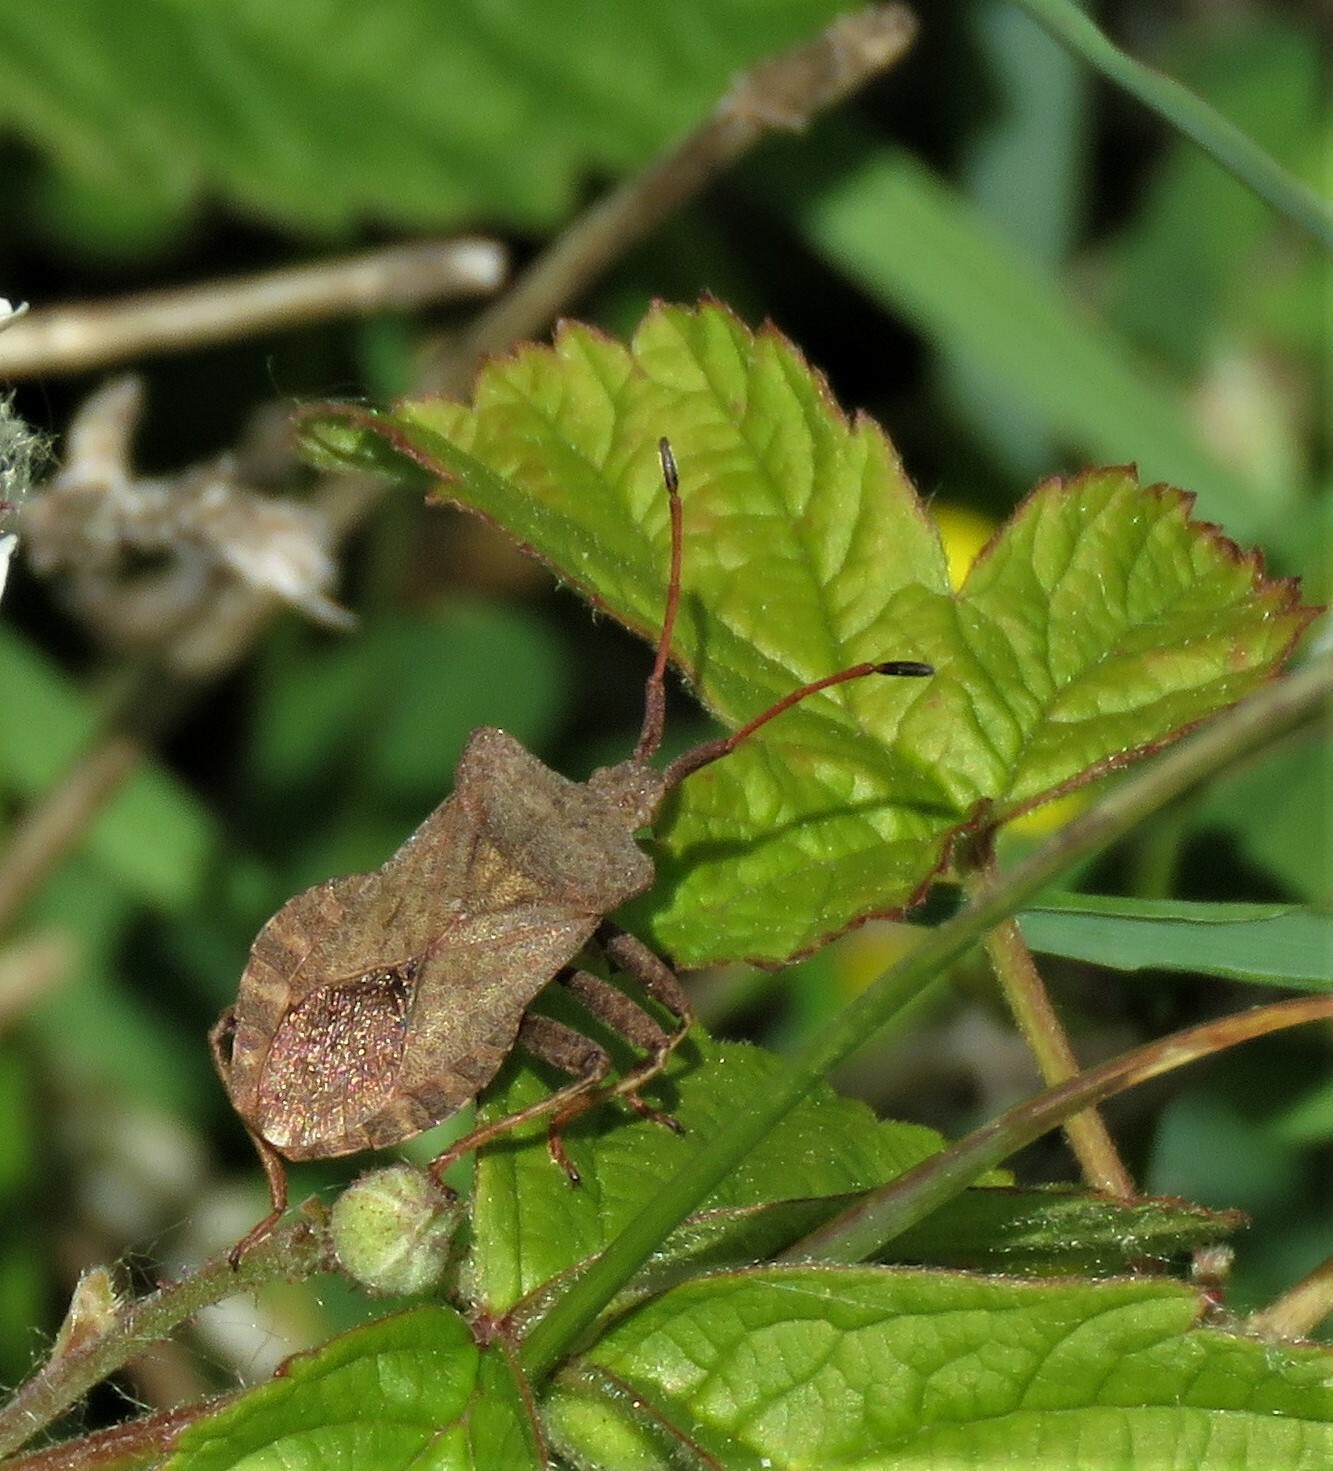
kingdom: Animalia
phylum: Arthropoda
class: Insecta
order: Hemiptera
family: Coreidae
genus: Coreus
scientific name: Coreus marginatus
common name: Dock bug
